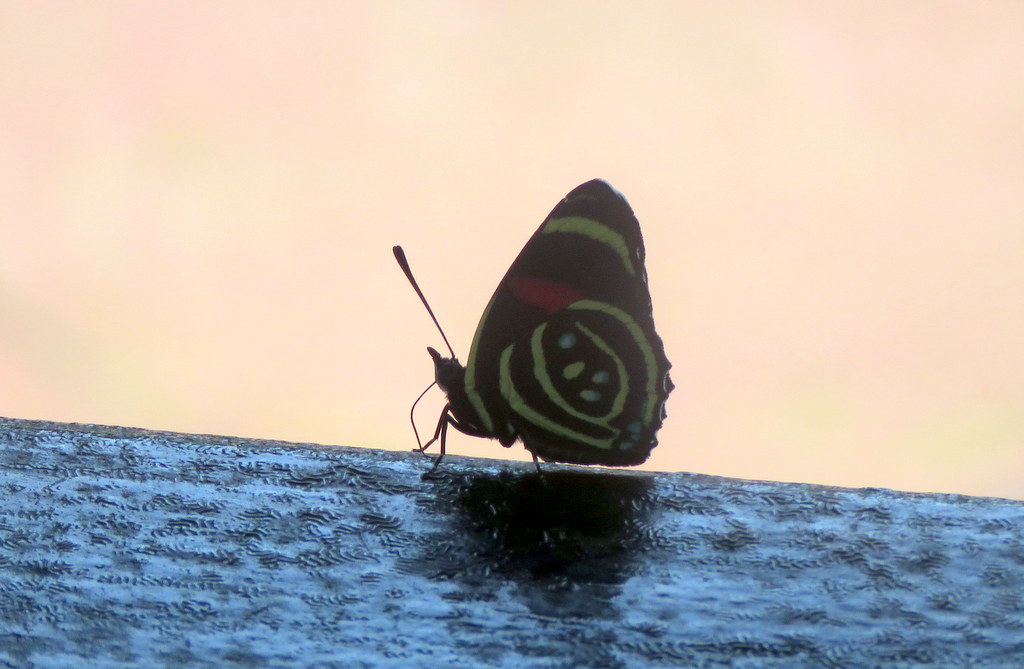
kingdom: Animalia
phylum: Arthropoda
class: Insecta
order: Lepidoptera
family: Nymphalidae
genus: Catagramma
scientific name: Catagramma Callicore hydaspes
